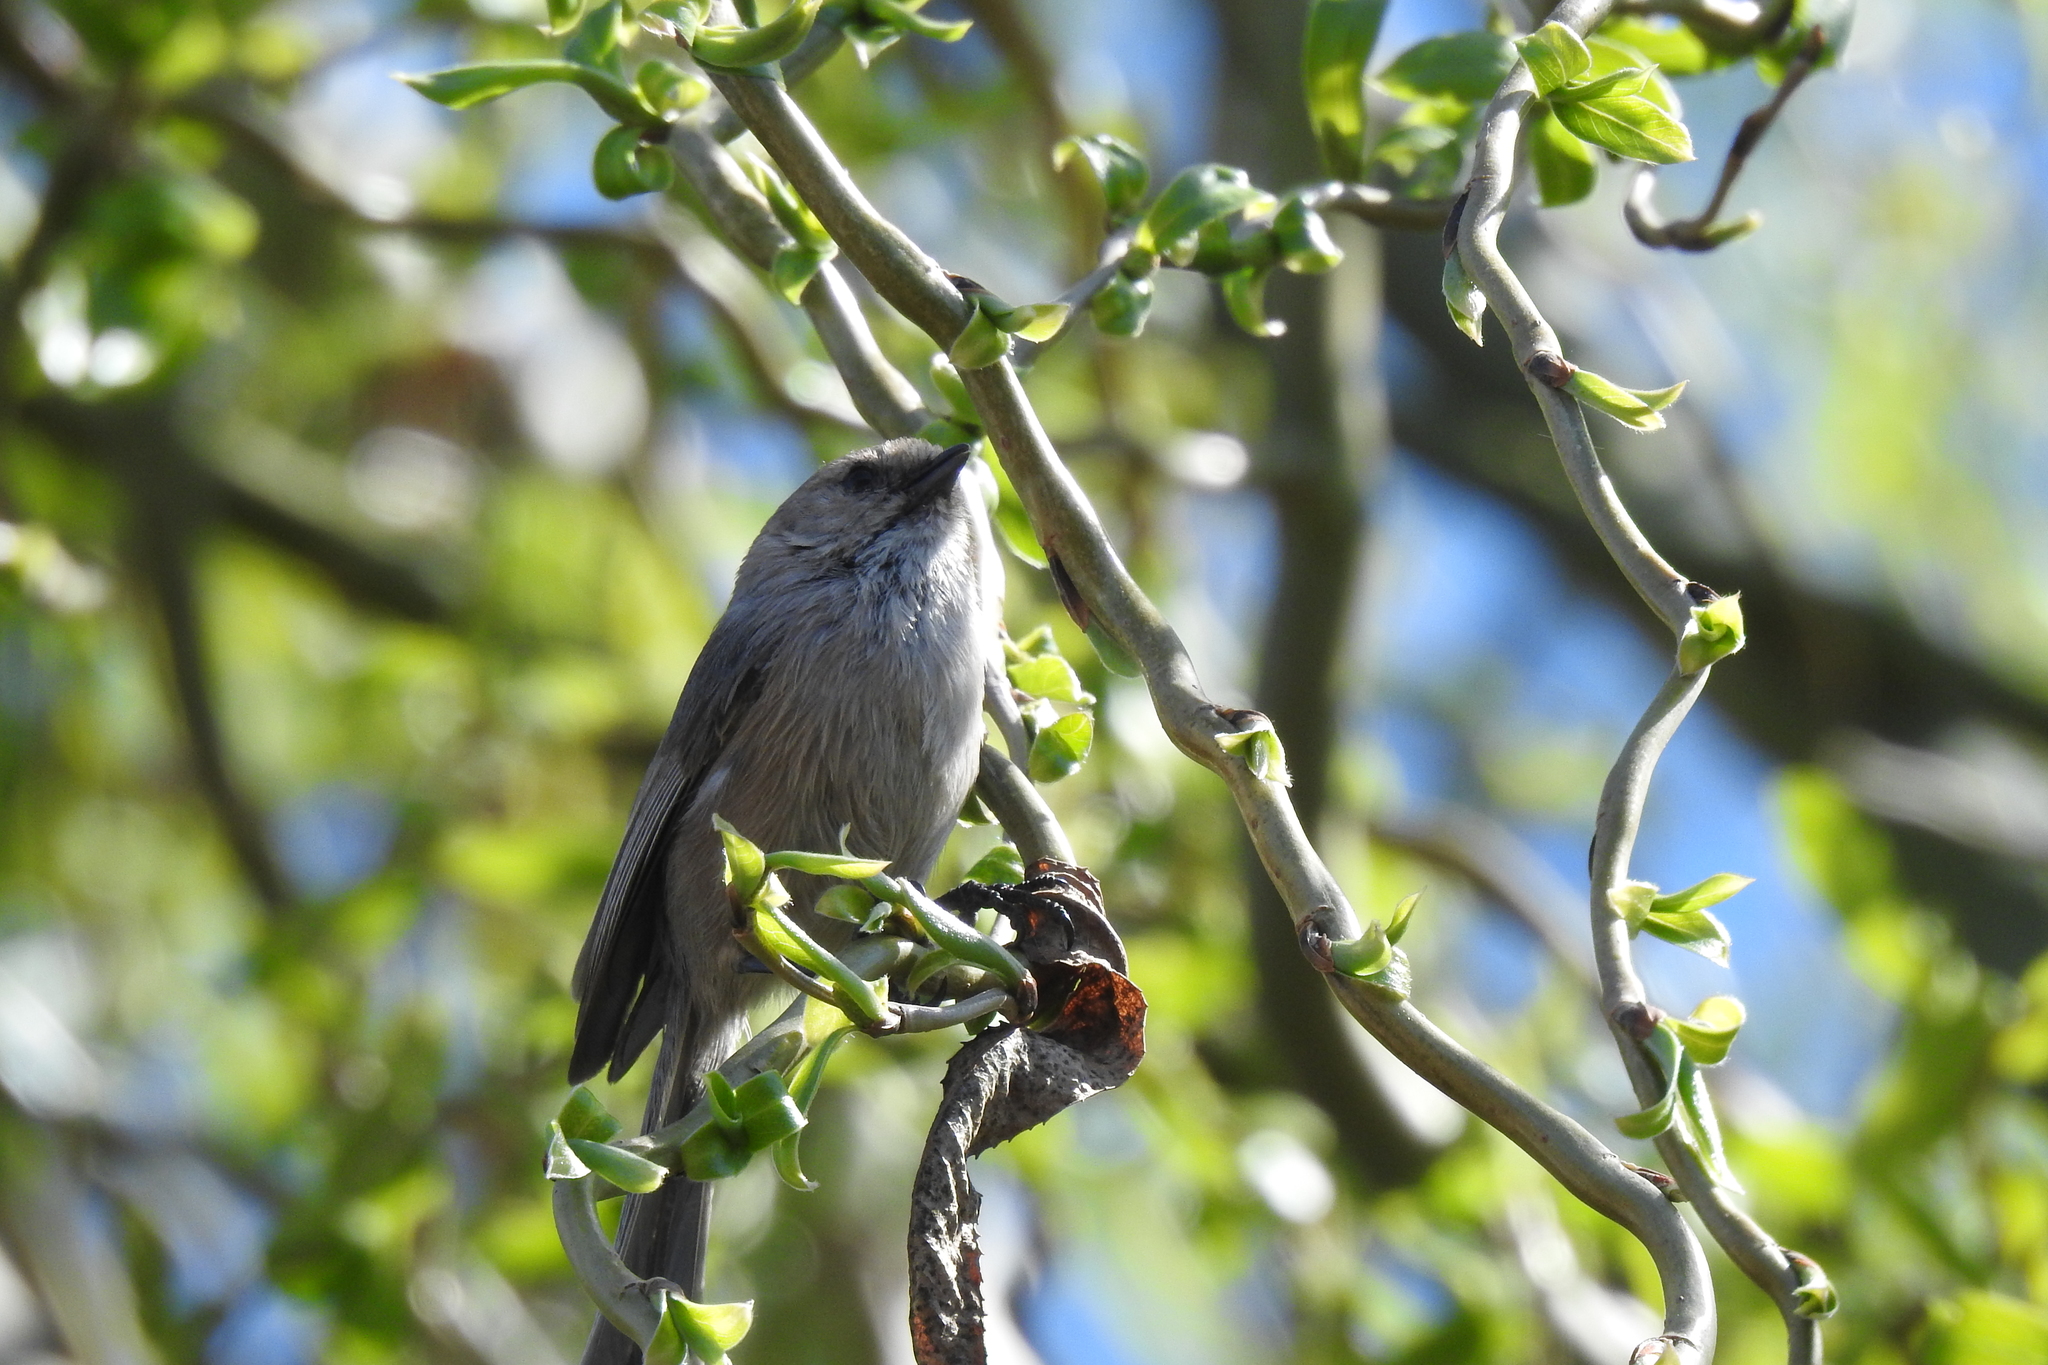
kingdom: Animalia
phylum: Chordata
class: Aves
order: Passeriformes
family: Aegithalidae
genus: Psaltriparus
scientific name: Psaltriparus minimus
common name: American bushtit
